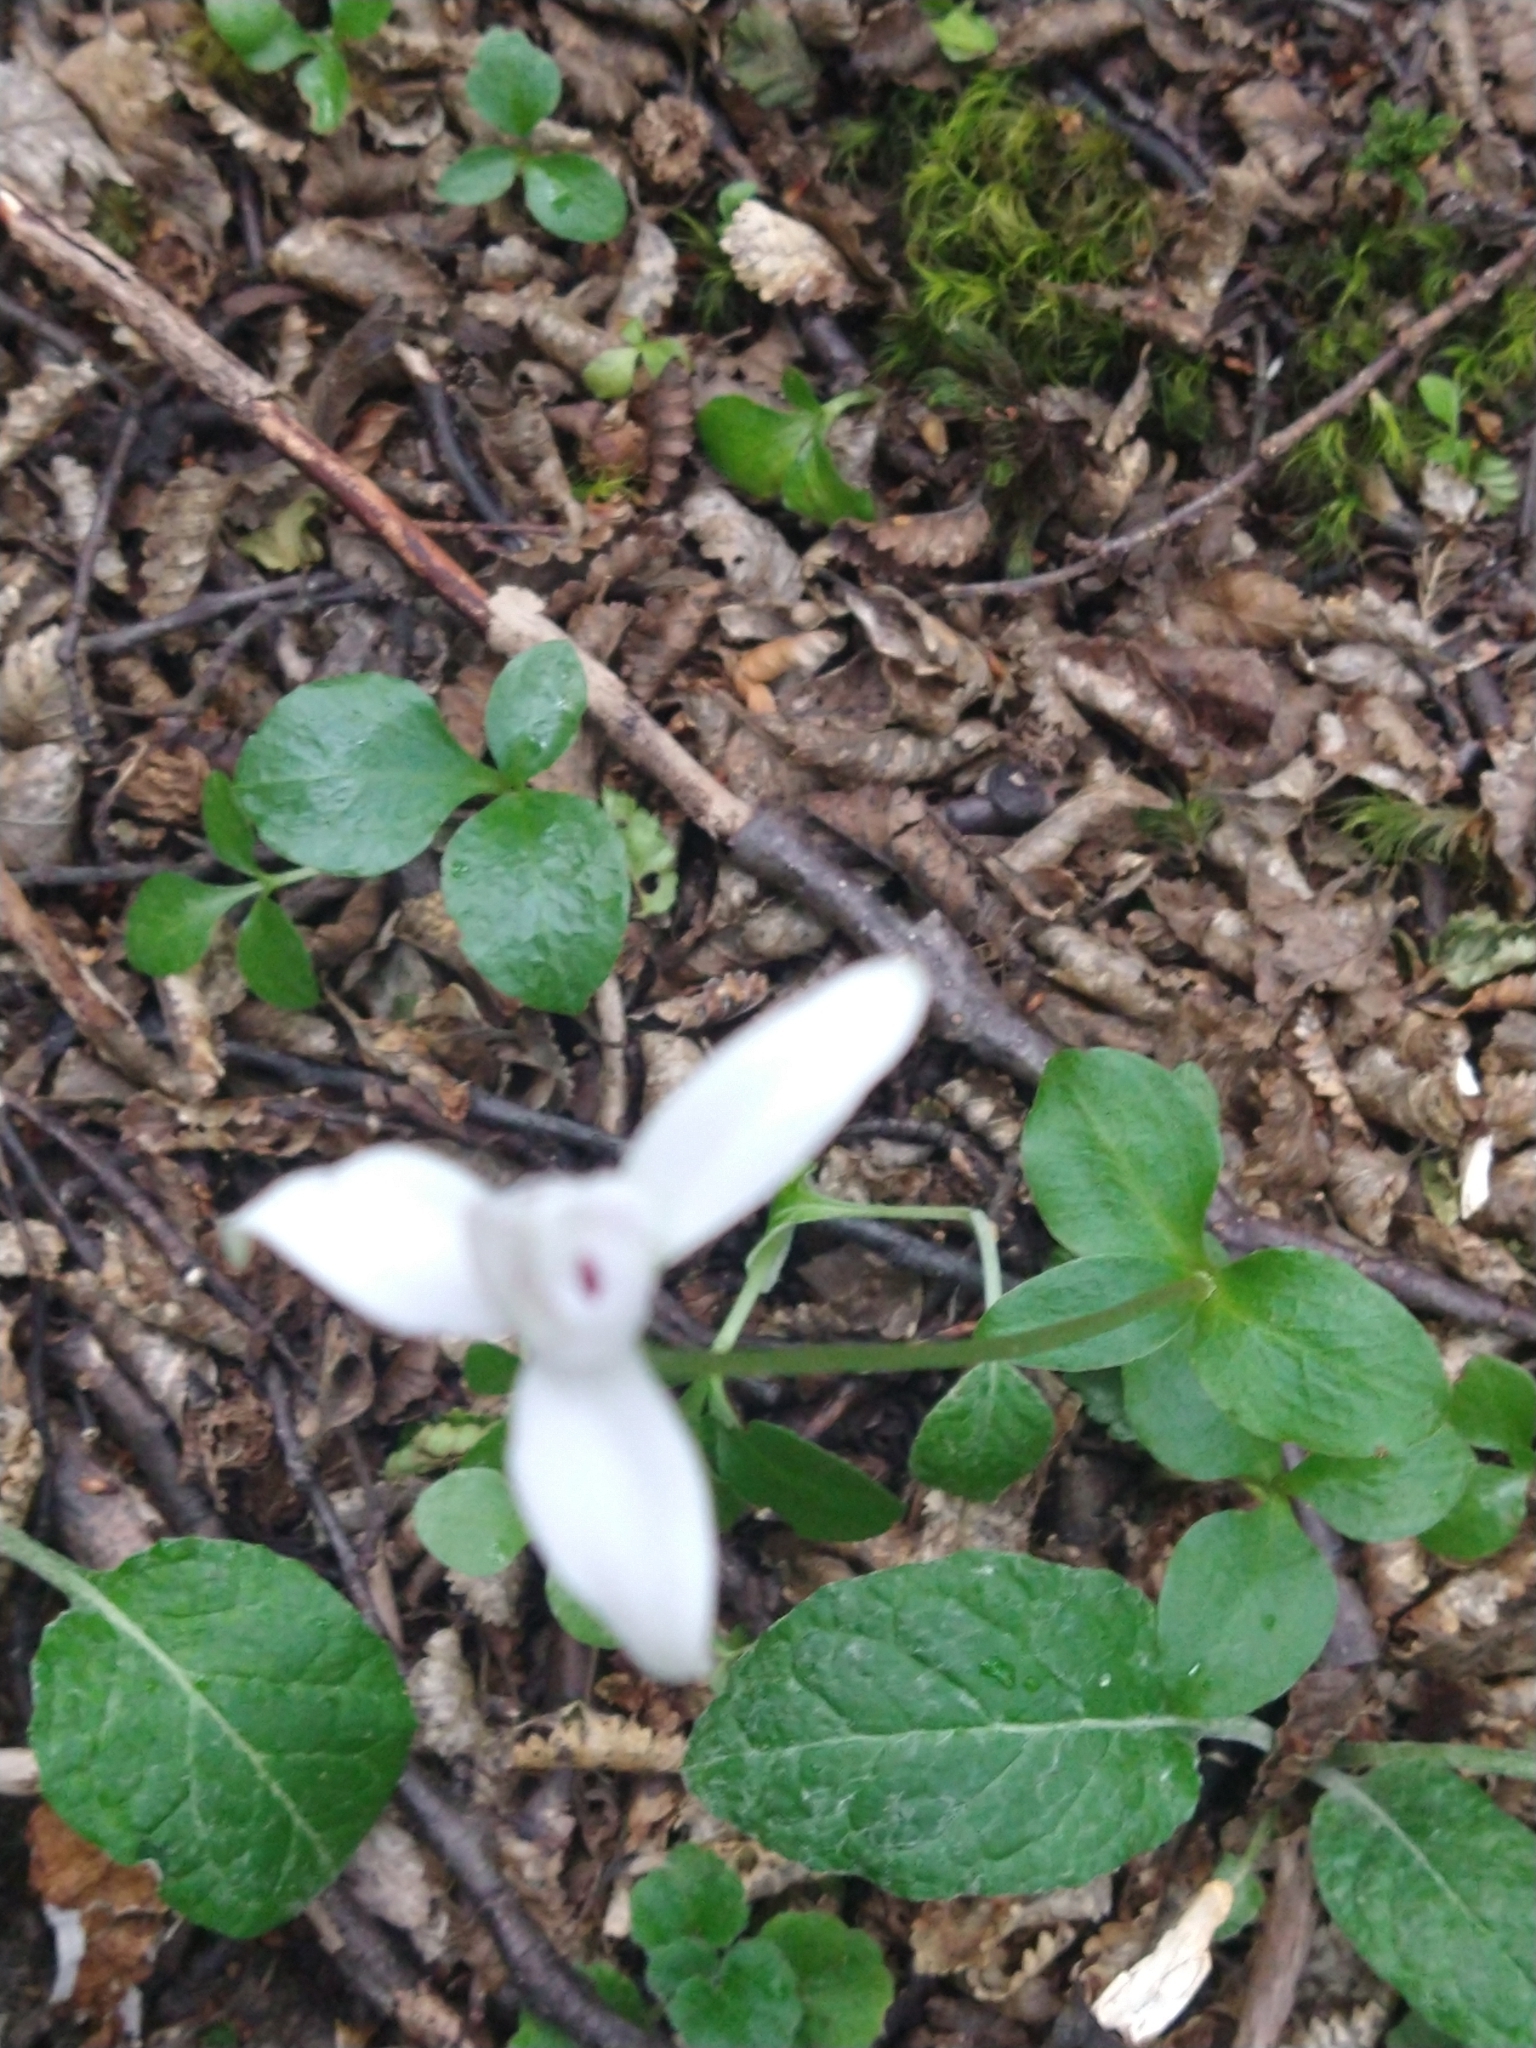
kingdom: Plantae
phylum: Tracheophyta
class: Liliopsida
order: Asparagales
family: Orchidaceae
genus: Codonorchis
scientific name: Codonorchis lessonii
